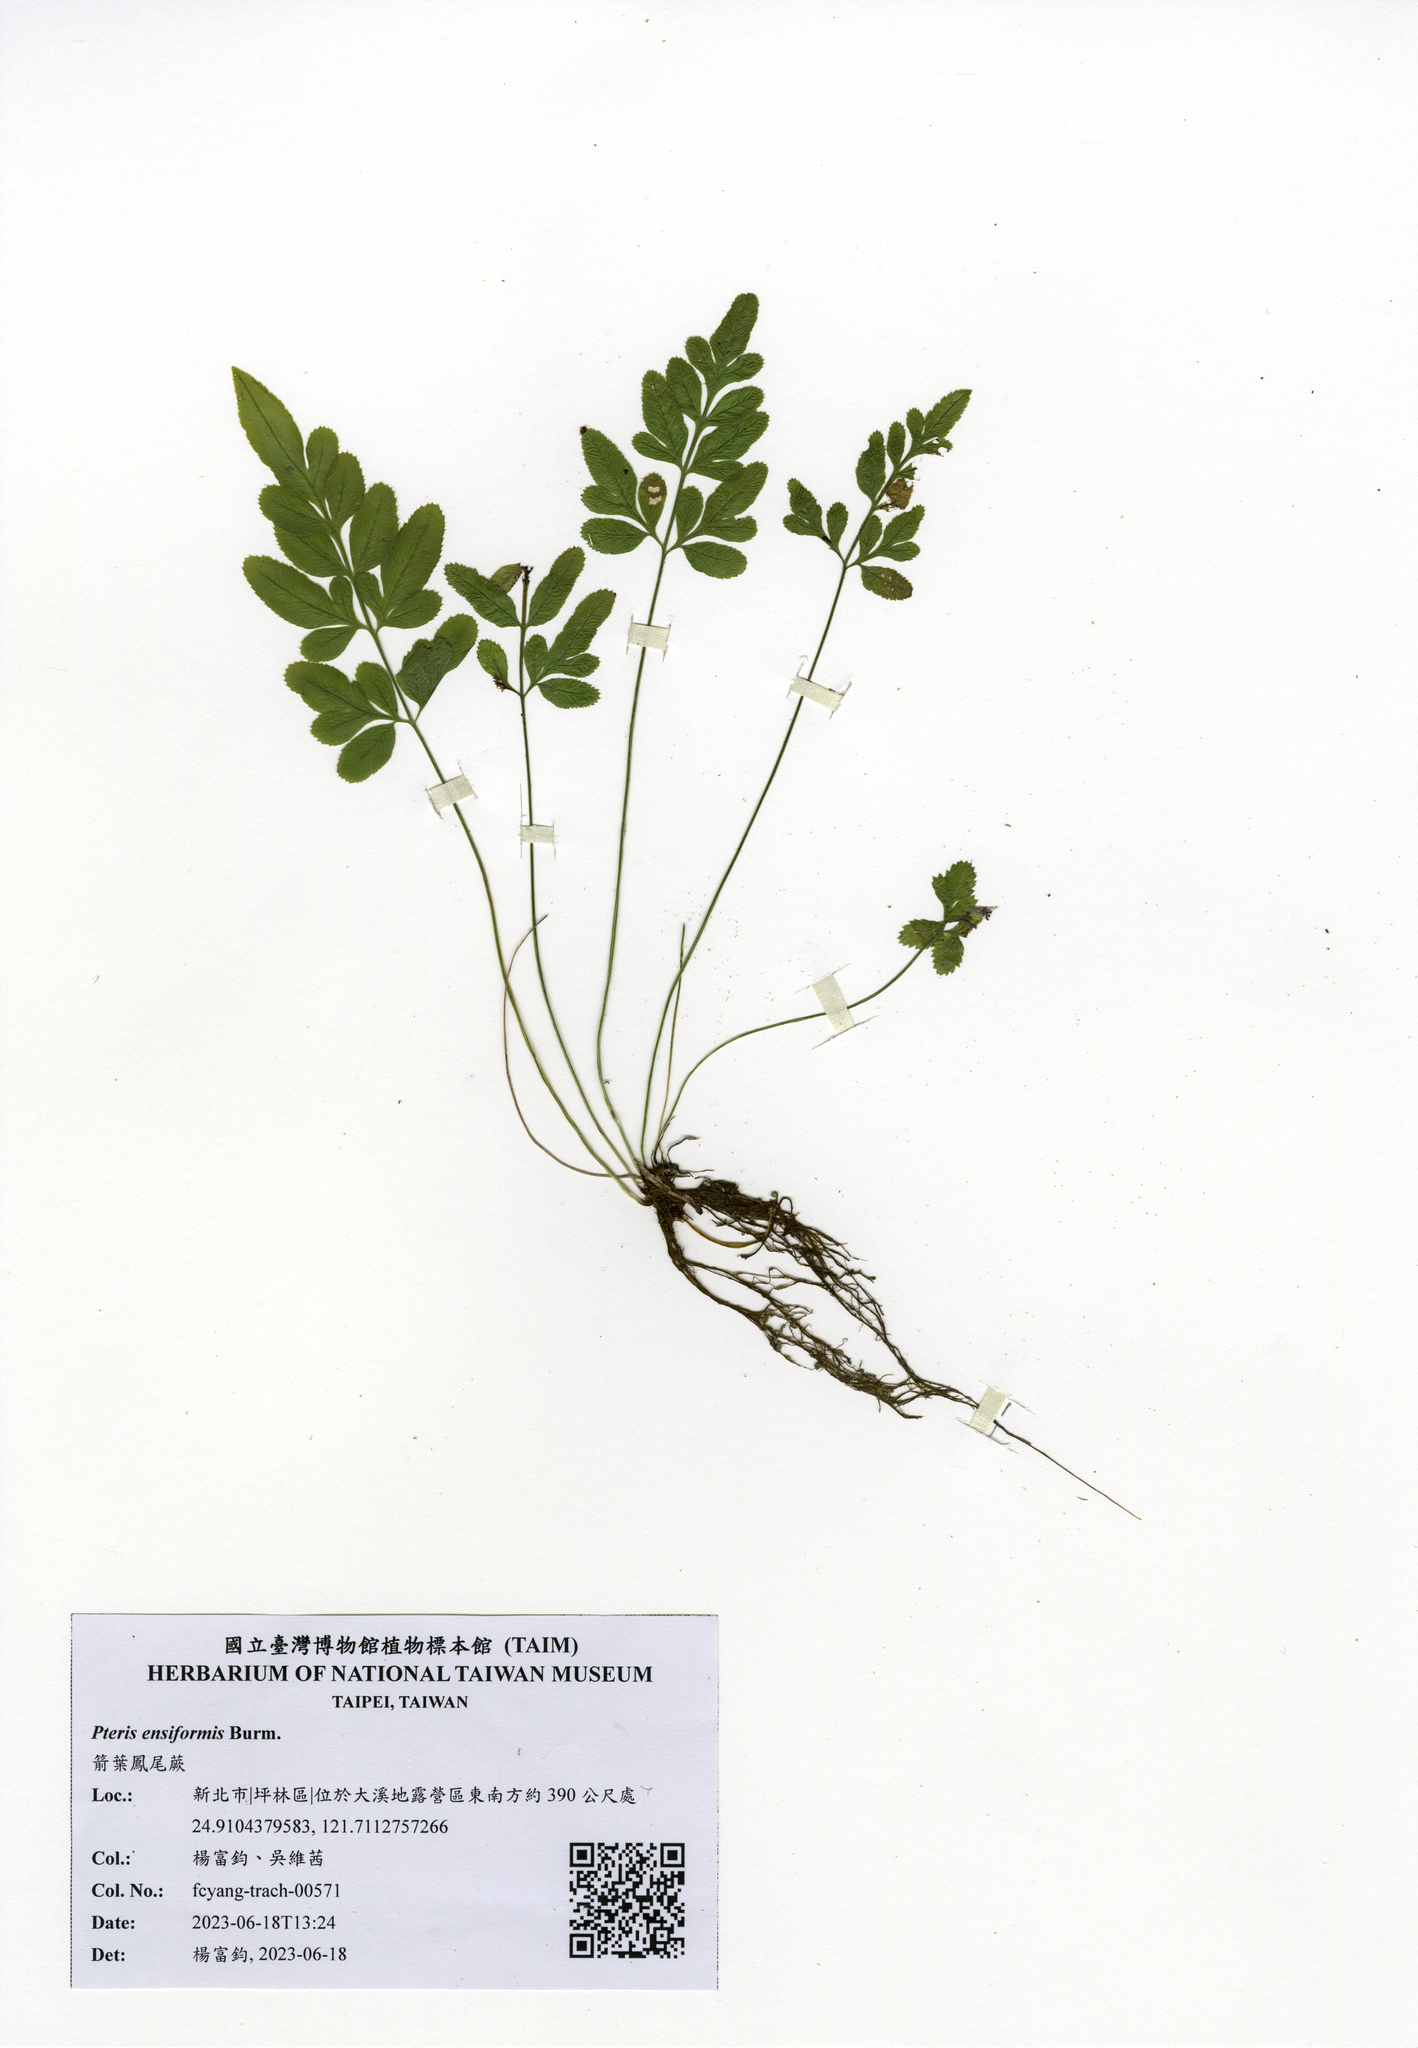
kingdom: Plantae
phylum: Tracheophyta
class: Polypodiopsida
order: Polypodiales
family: Pteridaceae
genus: Pteris
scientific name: Pteris ensiformis
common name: Sword brake
